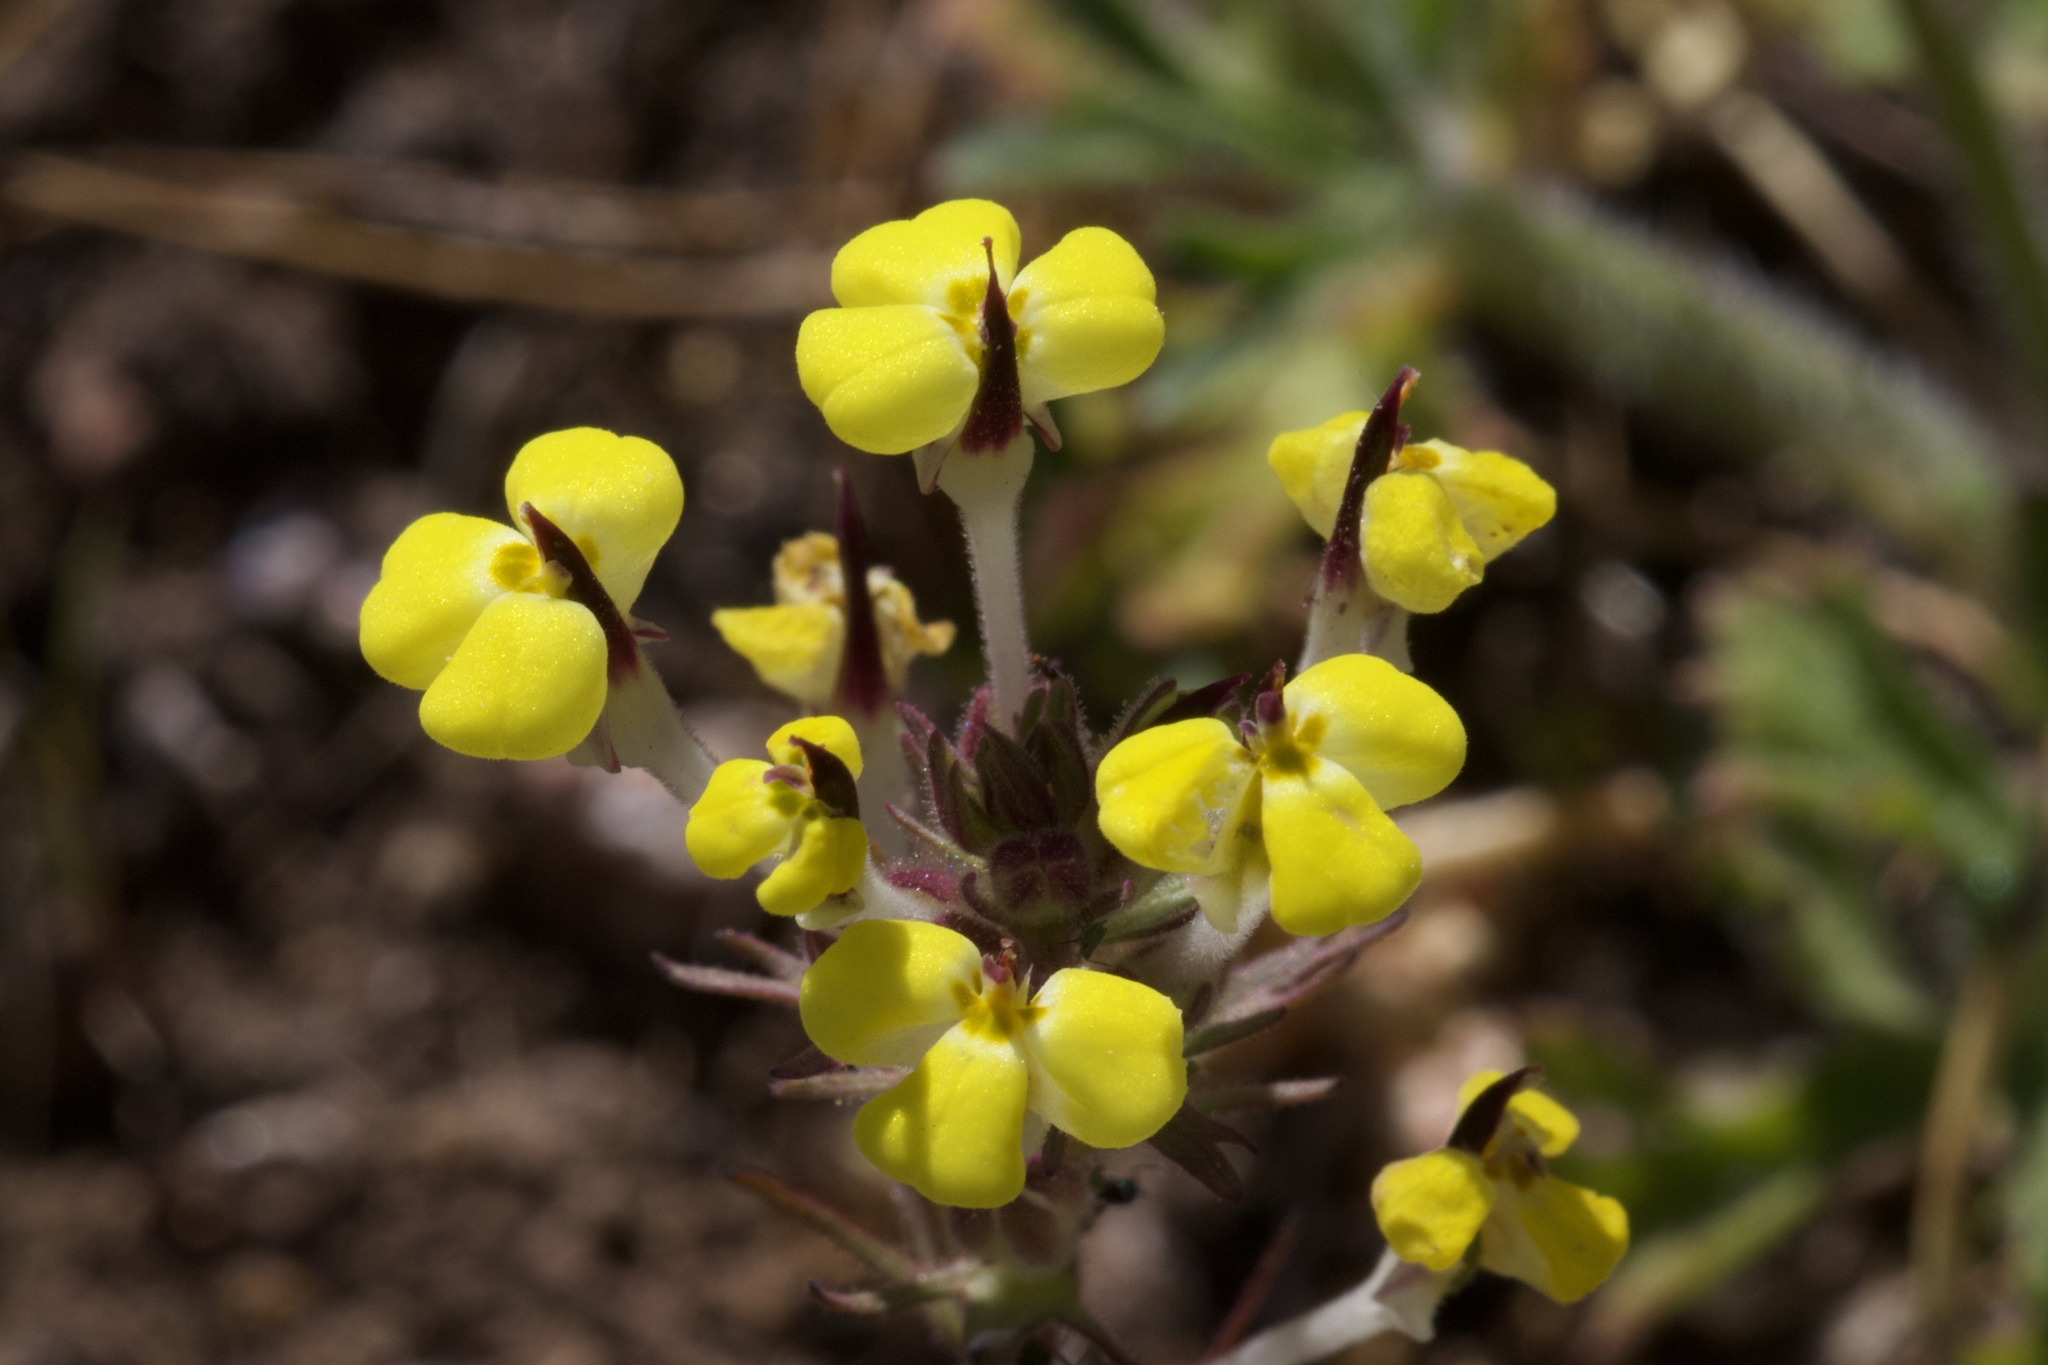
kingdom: Plantae
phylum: Tracheophyta
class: Magnoliopsida
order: Lamiales
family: Orobanchaceae
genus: Triphysaria
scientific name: Triphysaria eriantha
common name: Johnny-tuck
